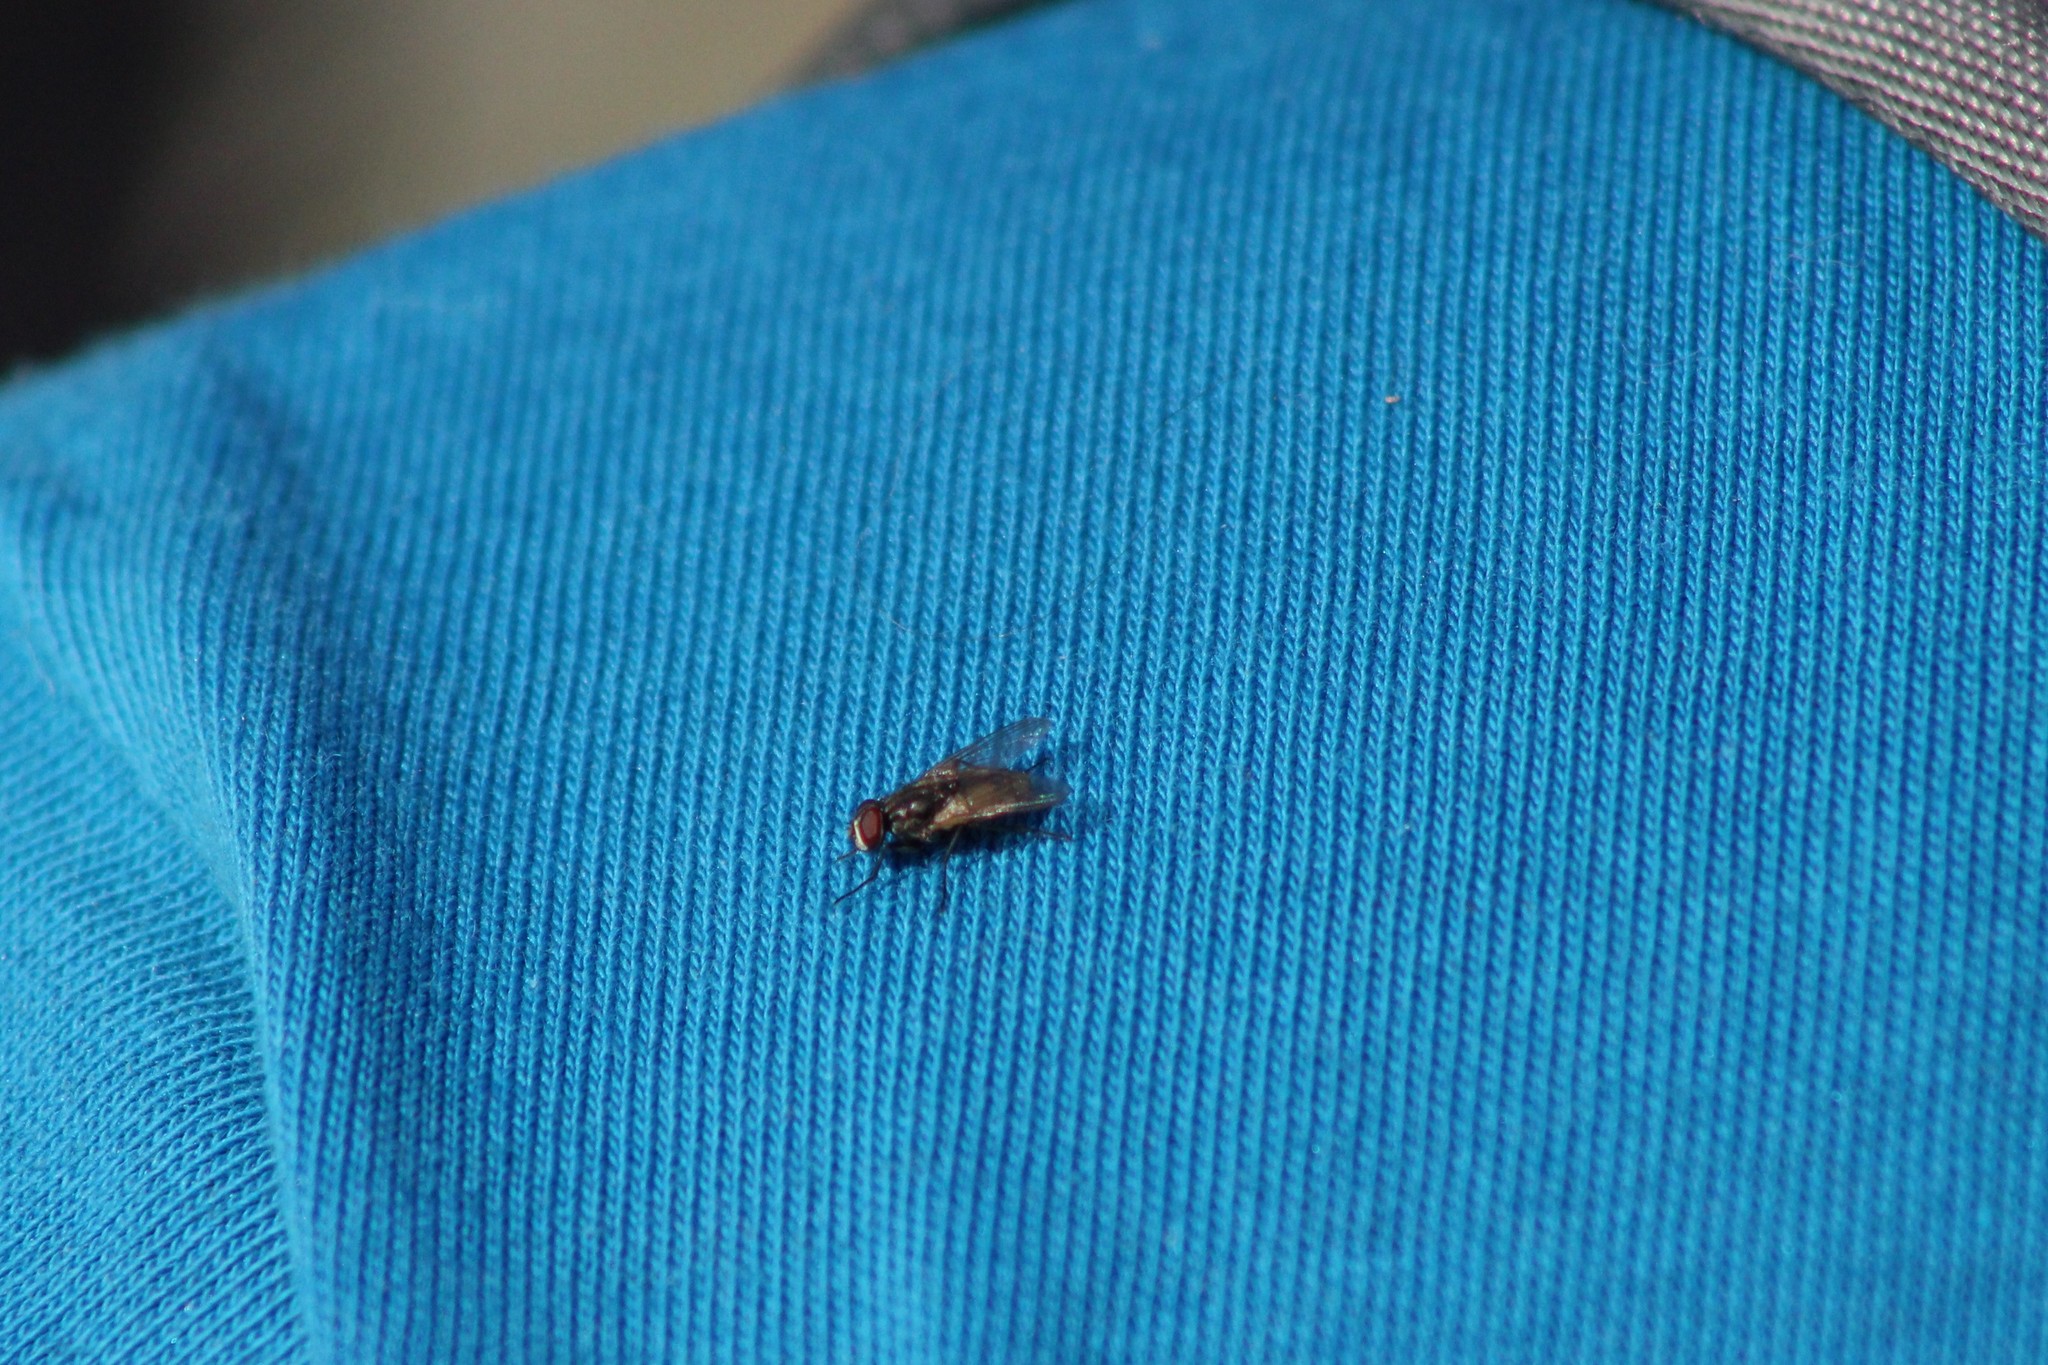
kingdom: Animalia
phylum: Arthropoda
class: Insecta
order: Diptera
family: Muscidae
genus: Musca
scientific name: Musca domestica
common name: House fly
